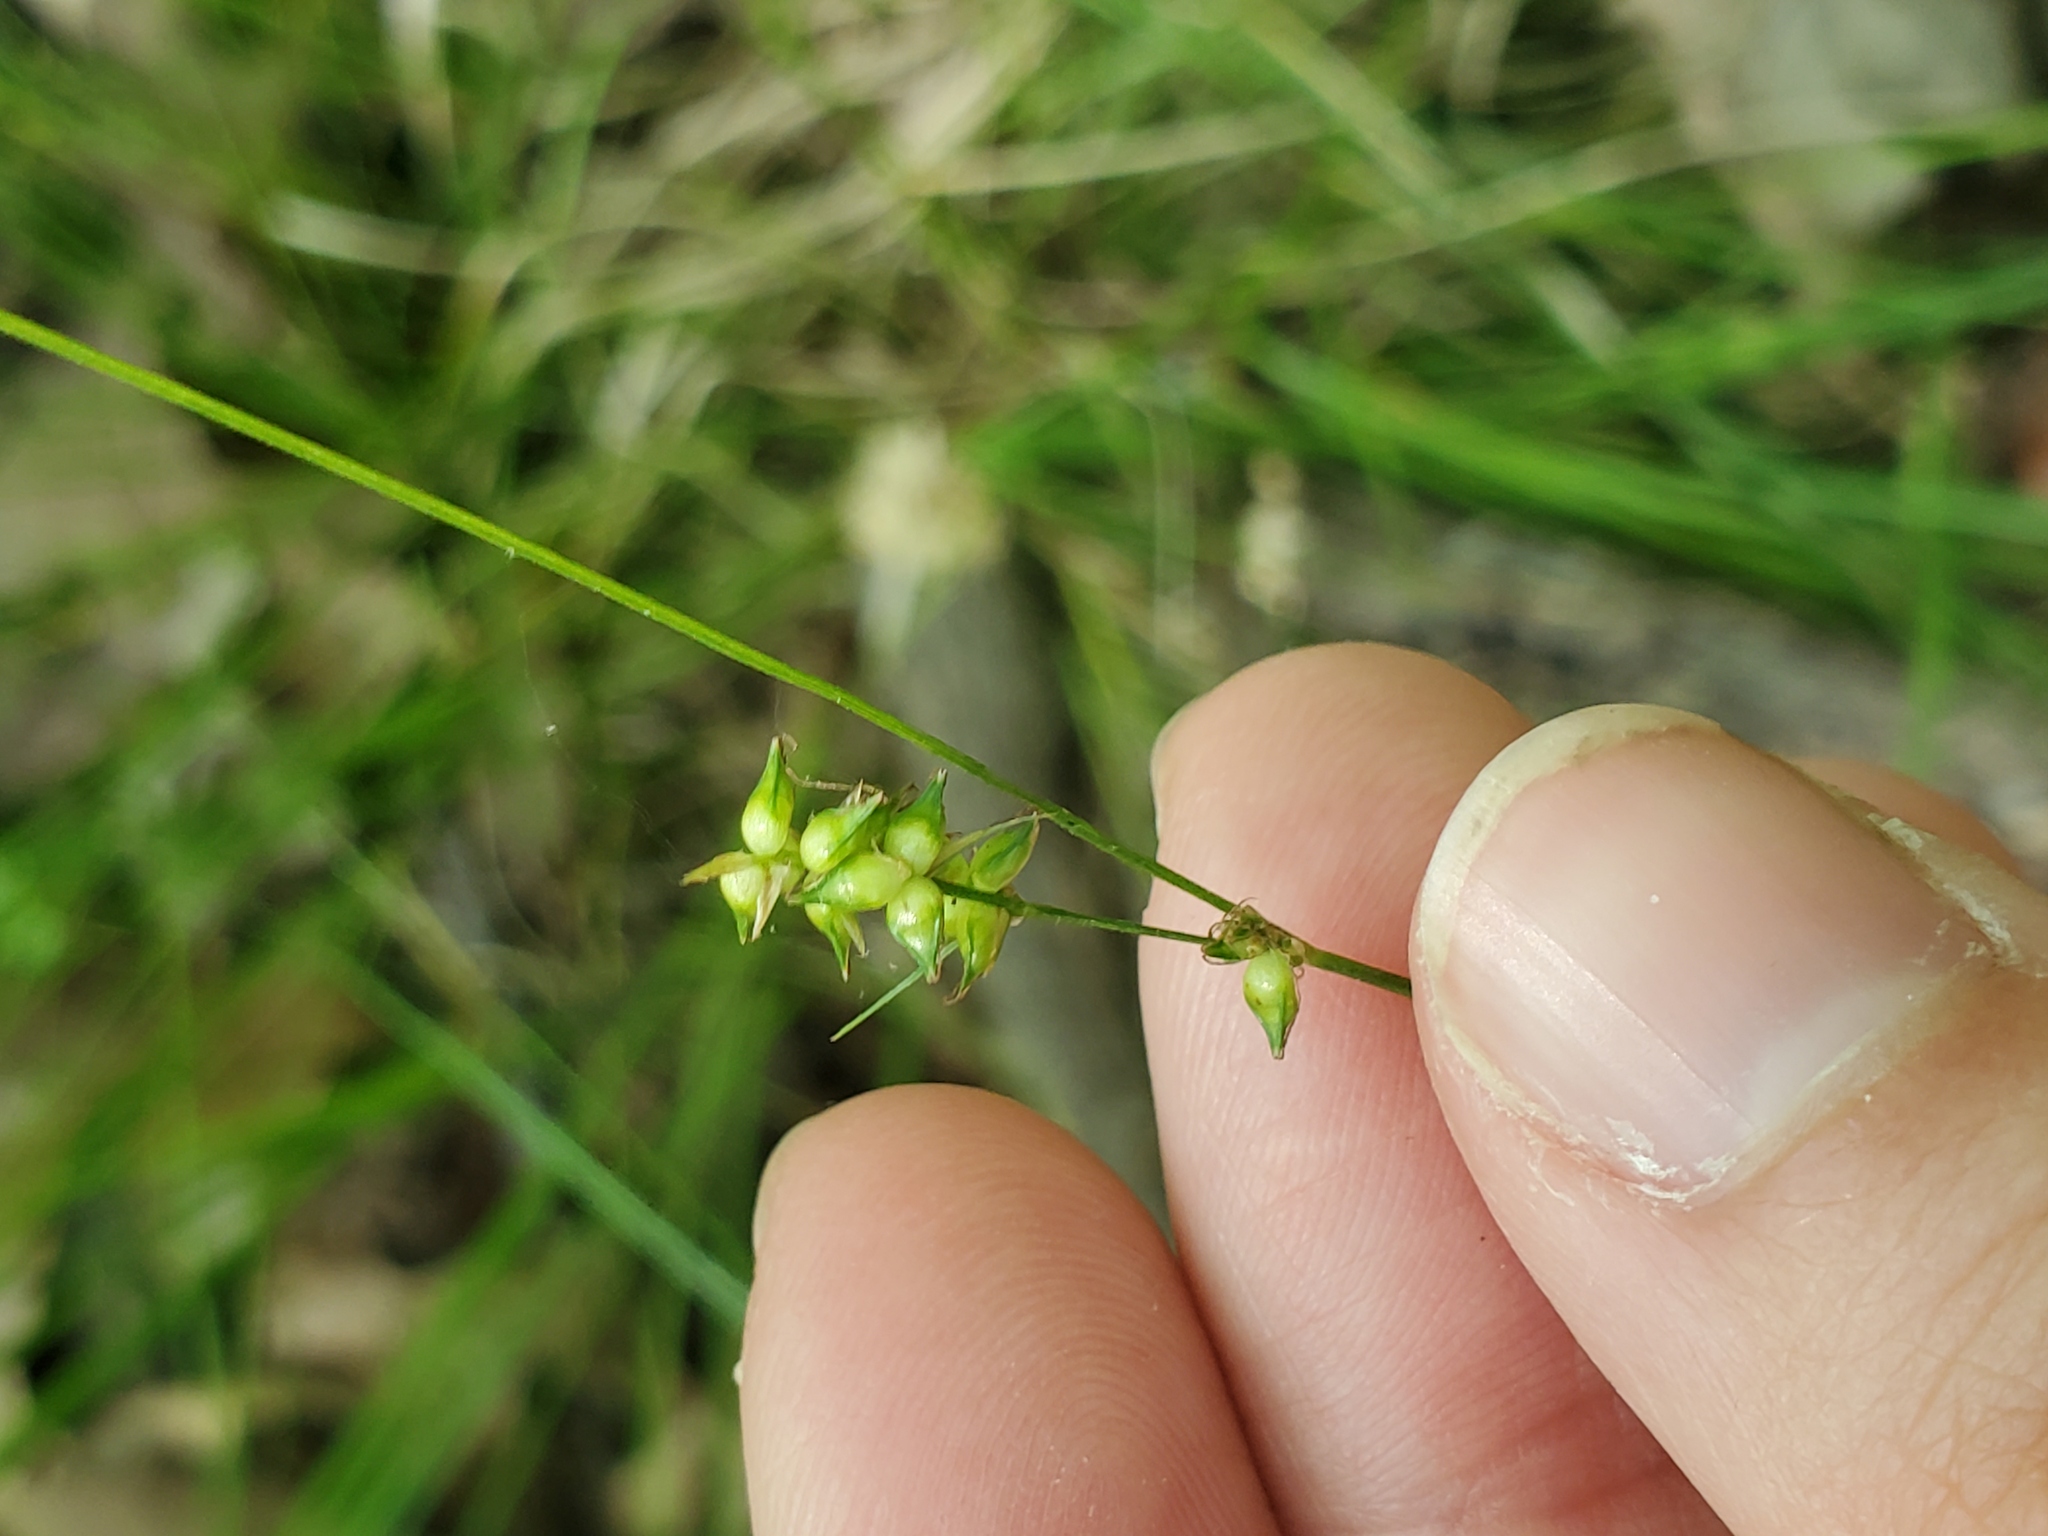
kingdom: Plantae
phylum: Tracheophyta
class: Liliopsida
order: Poales
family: Cyperaceae
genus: Carex
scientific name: Carex retroflexa
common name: Reflexed sedge
